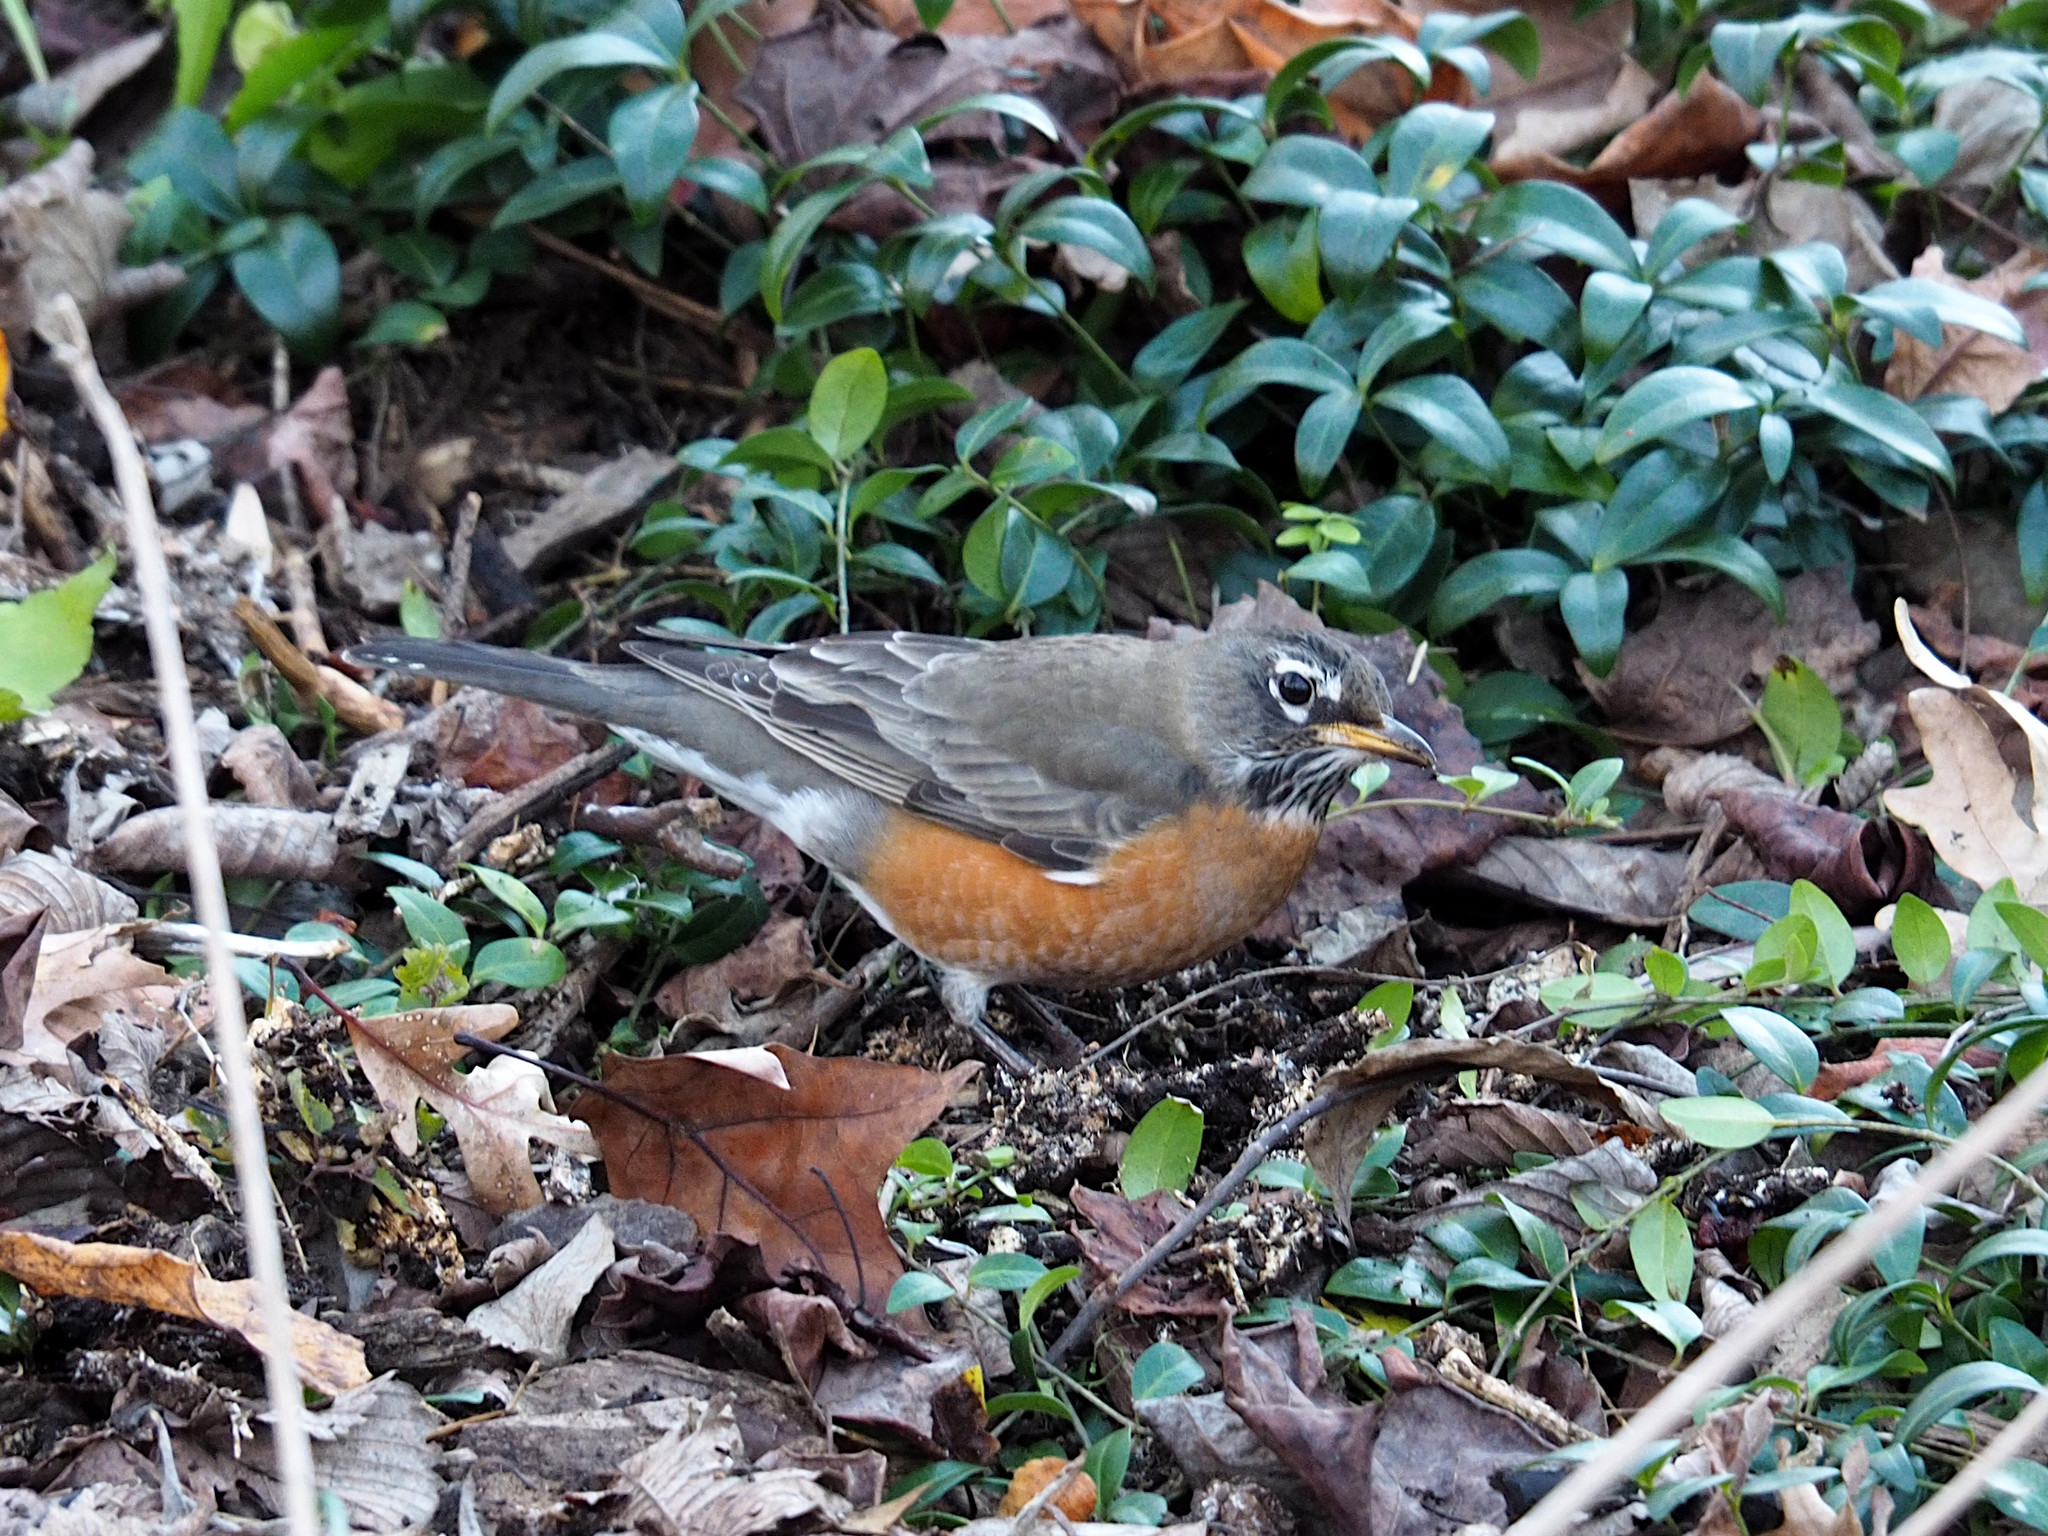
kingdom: Animalia
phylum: Chordata
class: Aves
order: Passeriformes
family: Turdidae
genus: Turdus
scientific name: Turdus migratorius
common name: American robin
